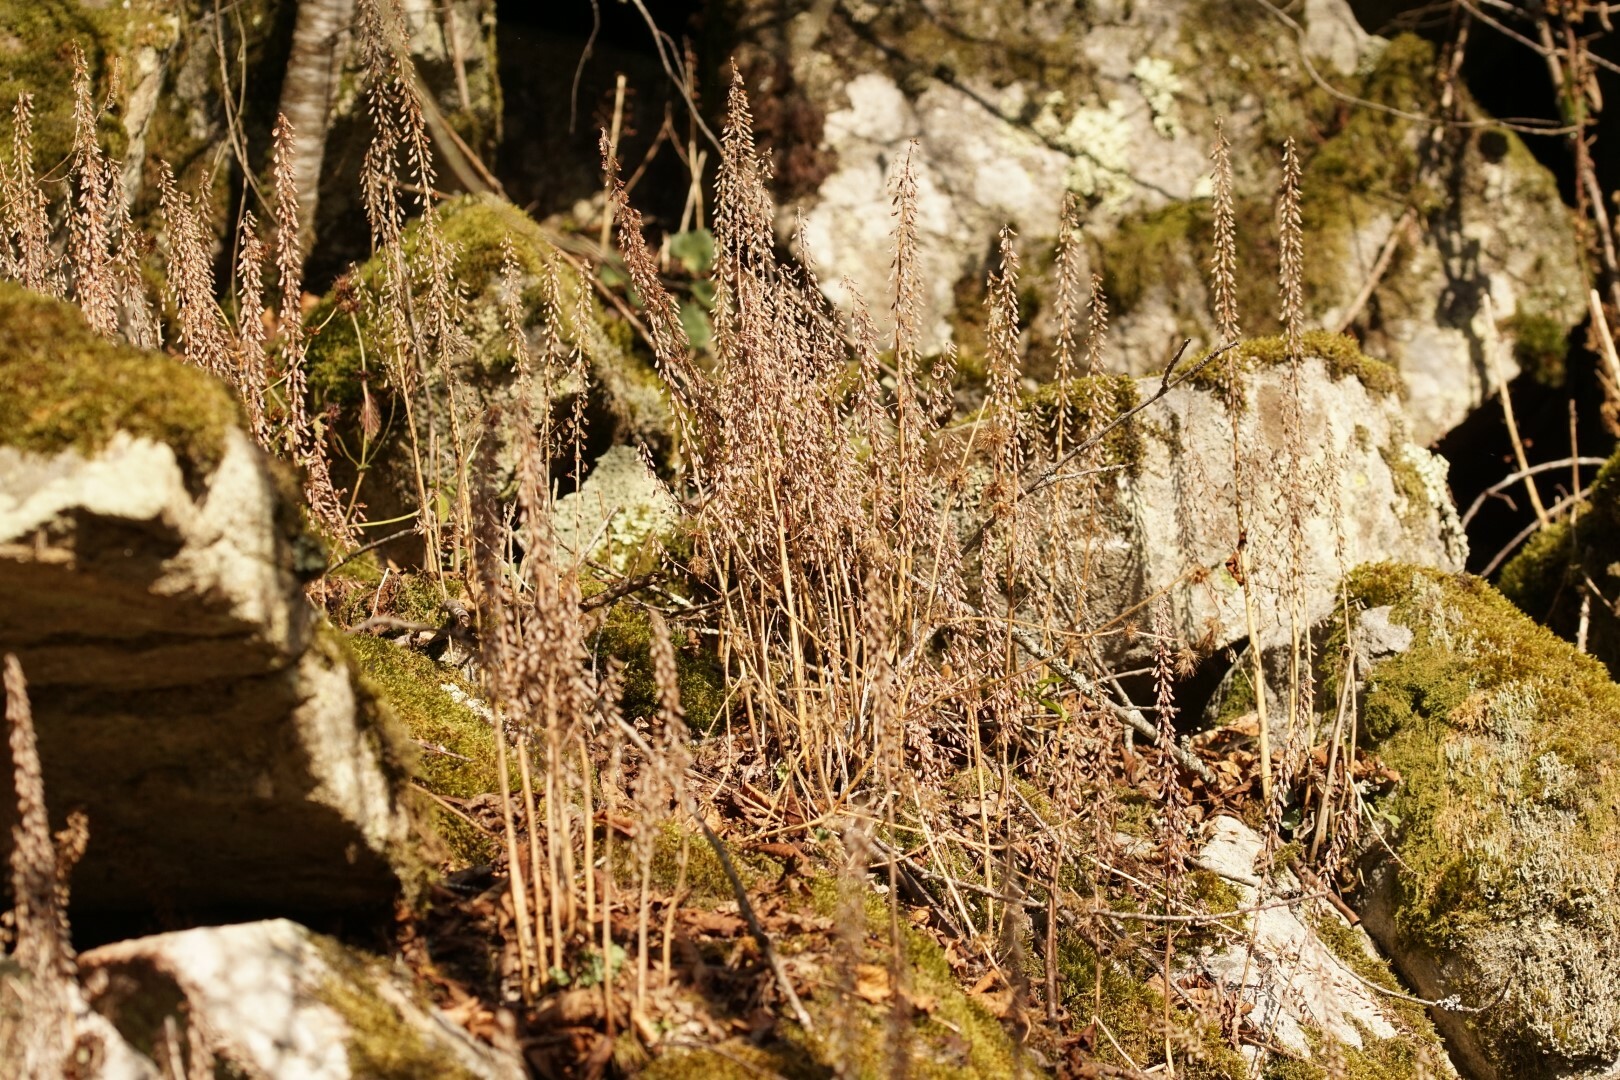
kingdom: Plantae
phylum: Tracheophyta
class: Magnoliopsida
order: Saxifragales
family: Crassulaceae
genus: Umbilicus
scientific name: Umbilicus rupestris
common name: Navelwort
